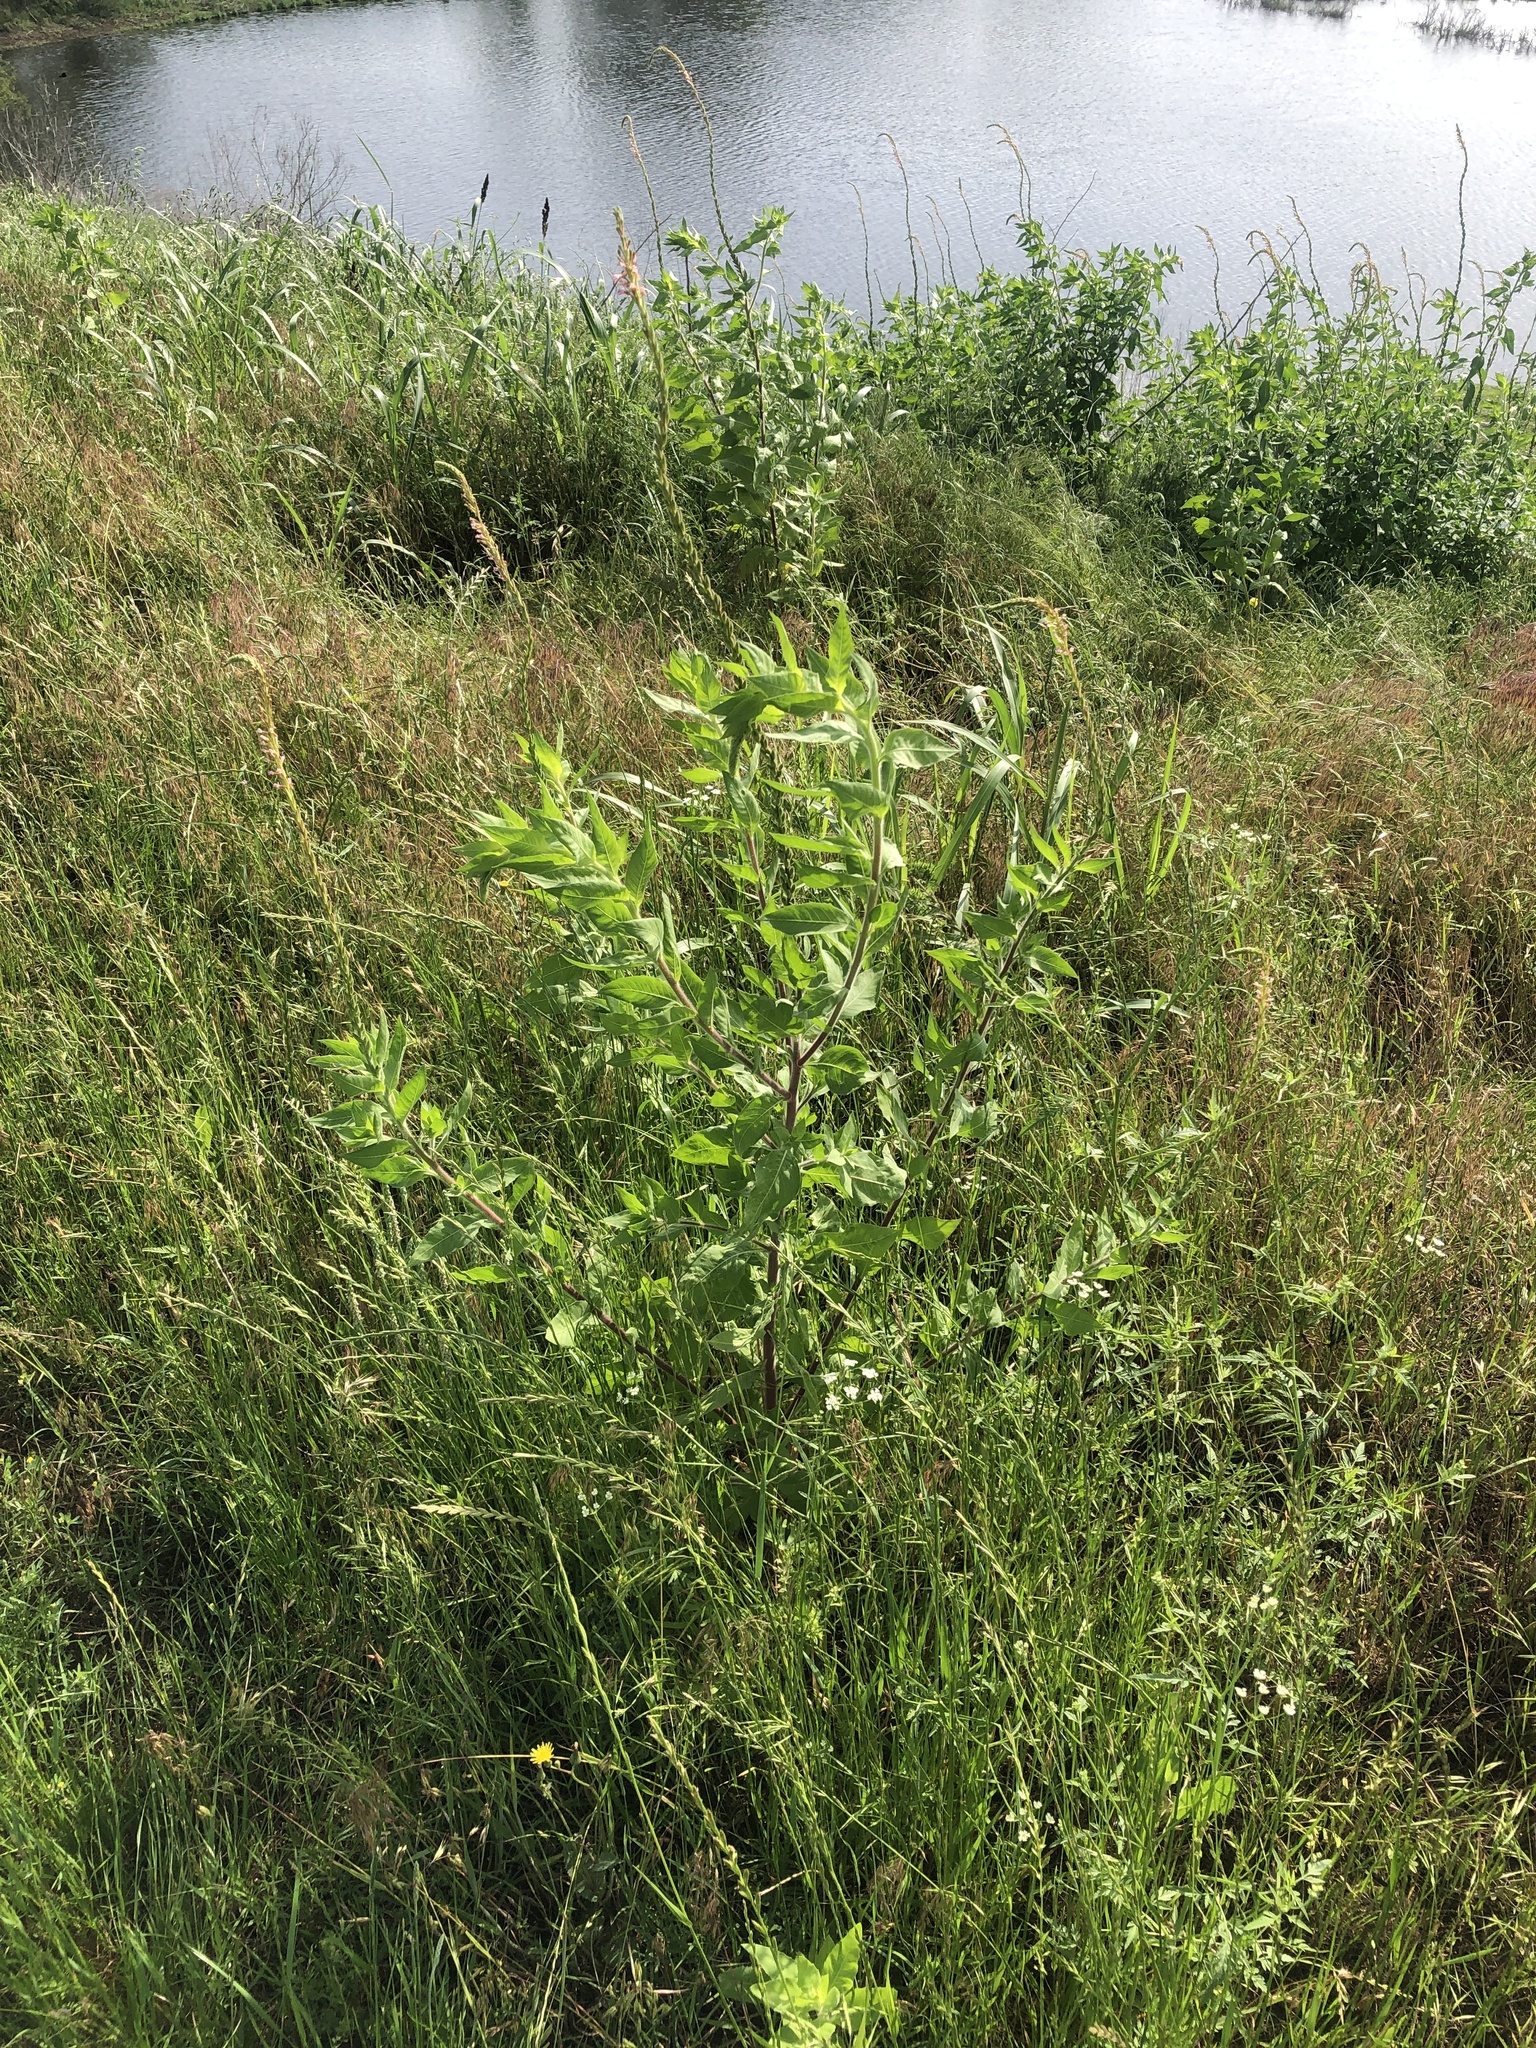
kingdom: Plantae
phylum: Tracheophyta
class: Magnoliopsida
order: Myrtales
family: Onagraceae
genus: Oenothera
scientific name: Oenothera curtiflora
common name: Velvetweed
